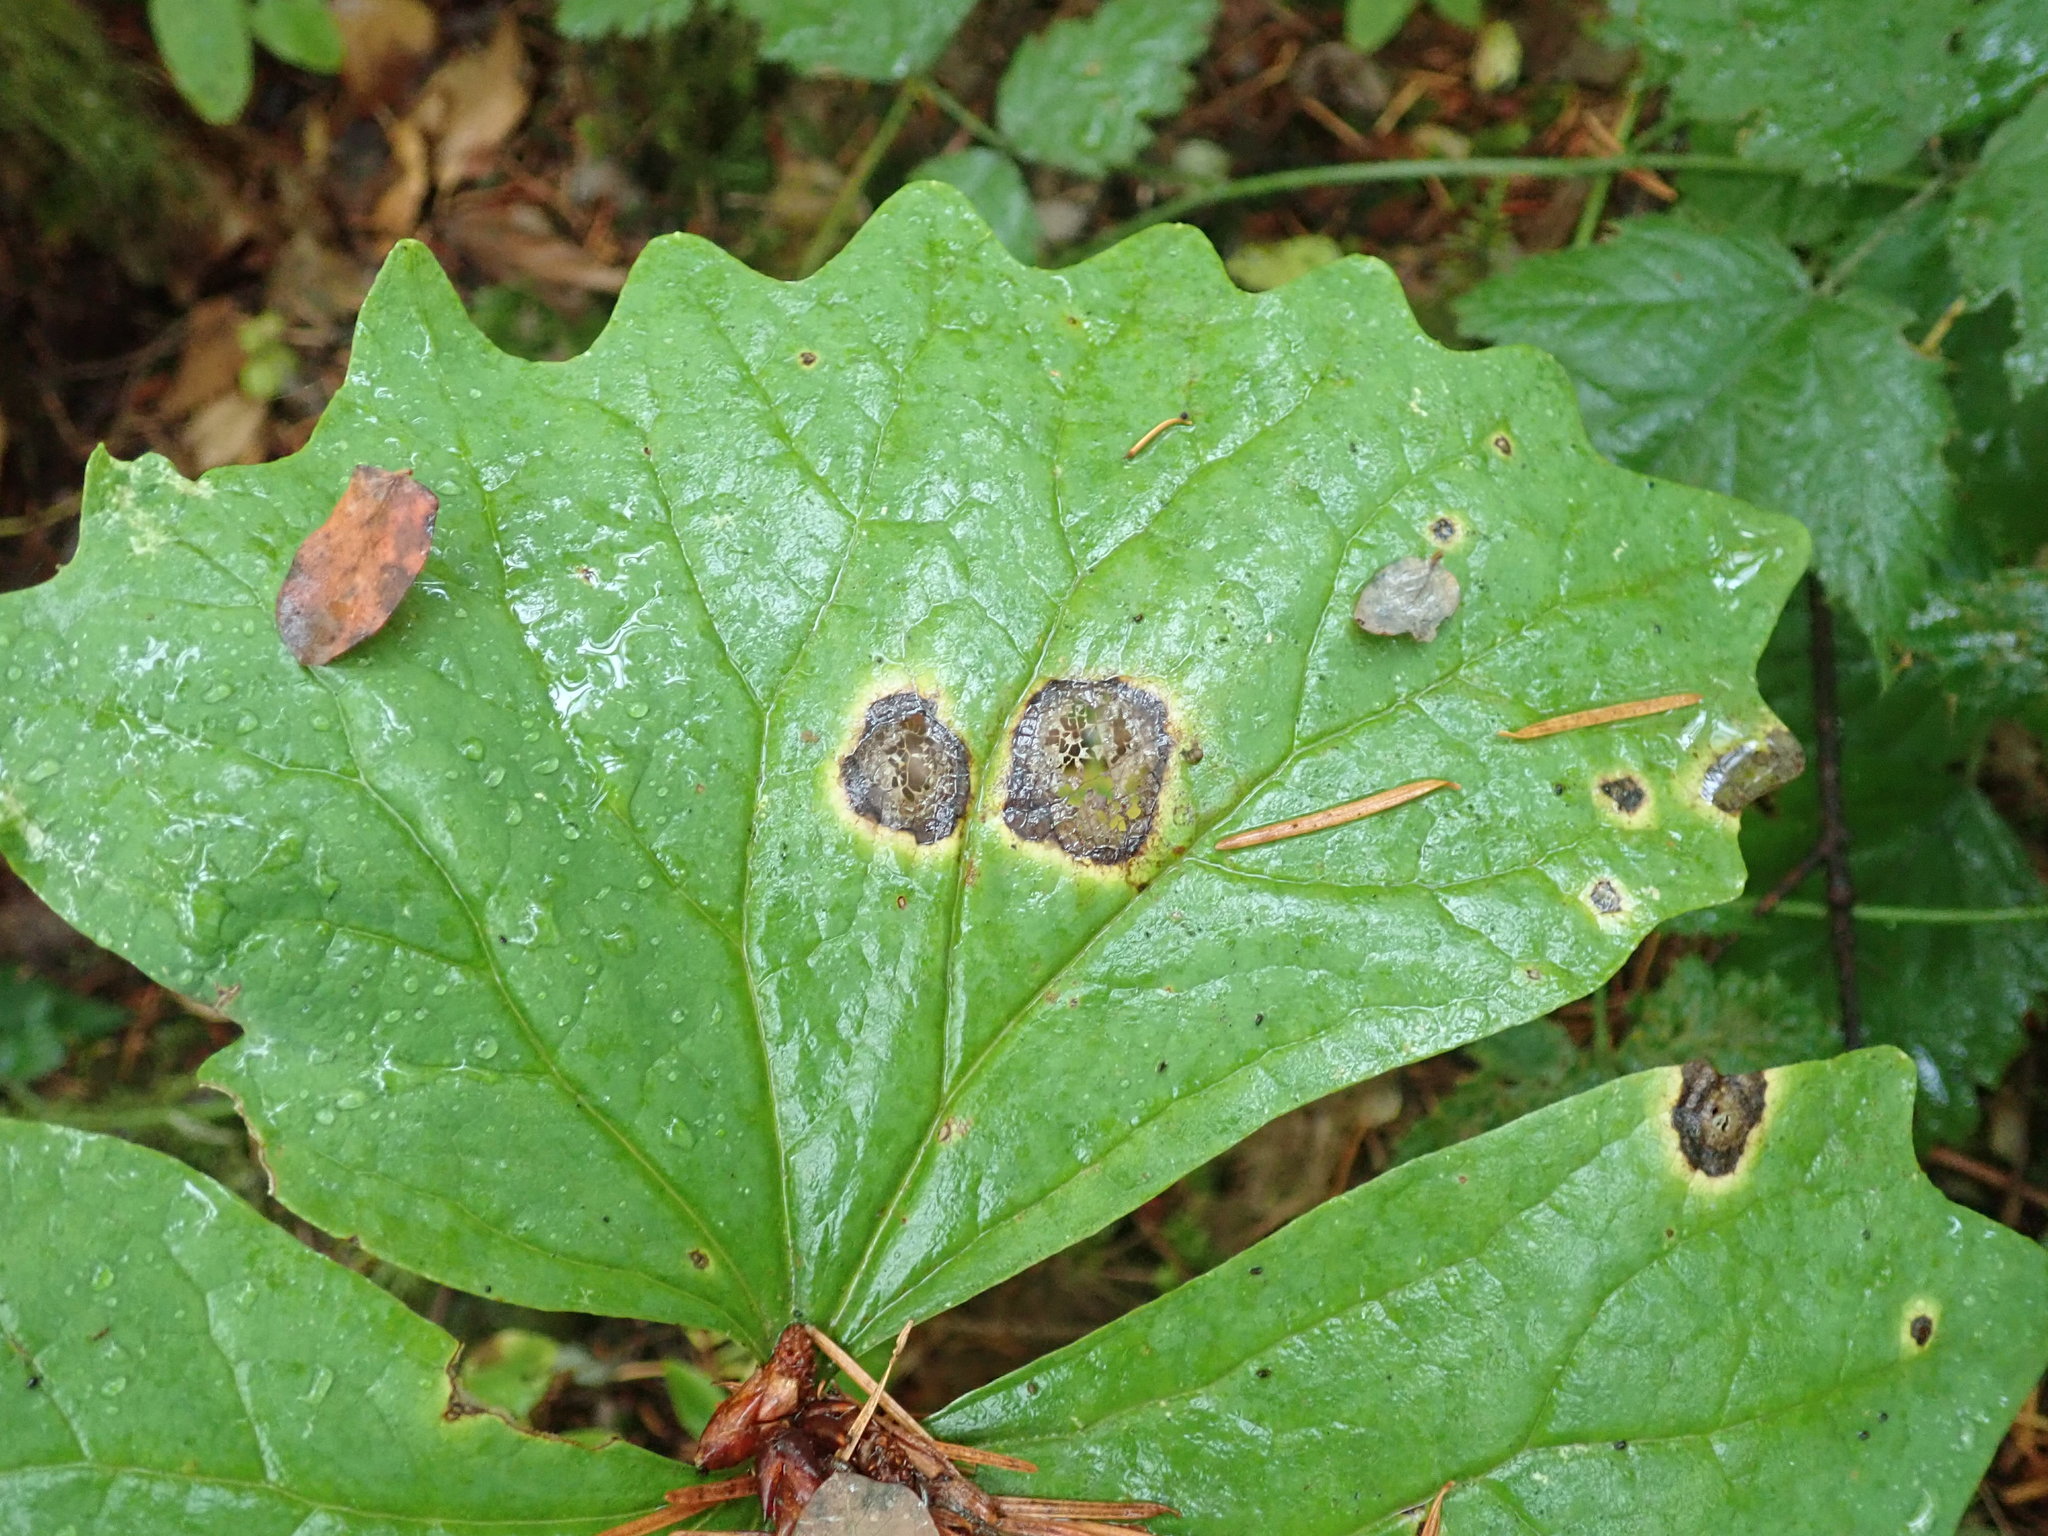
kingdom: Fungi
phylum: Ascomycota
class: Leotiomycetes
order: Helotiales
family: Sclerotiniaceae
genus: Valdensinia
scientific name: Valdensinia heterodoxa
